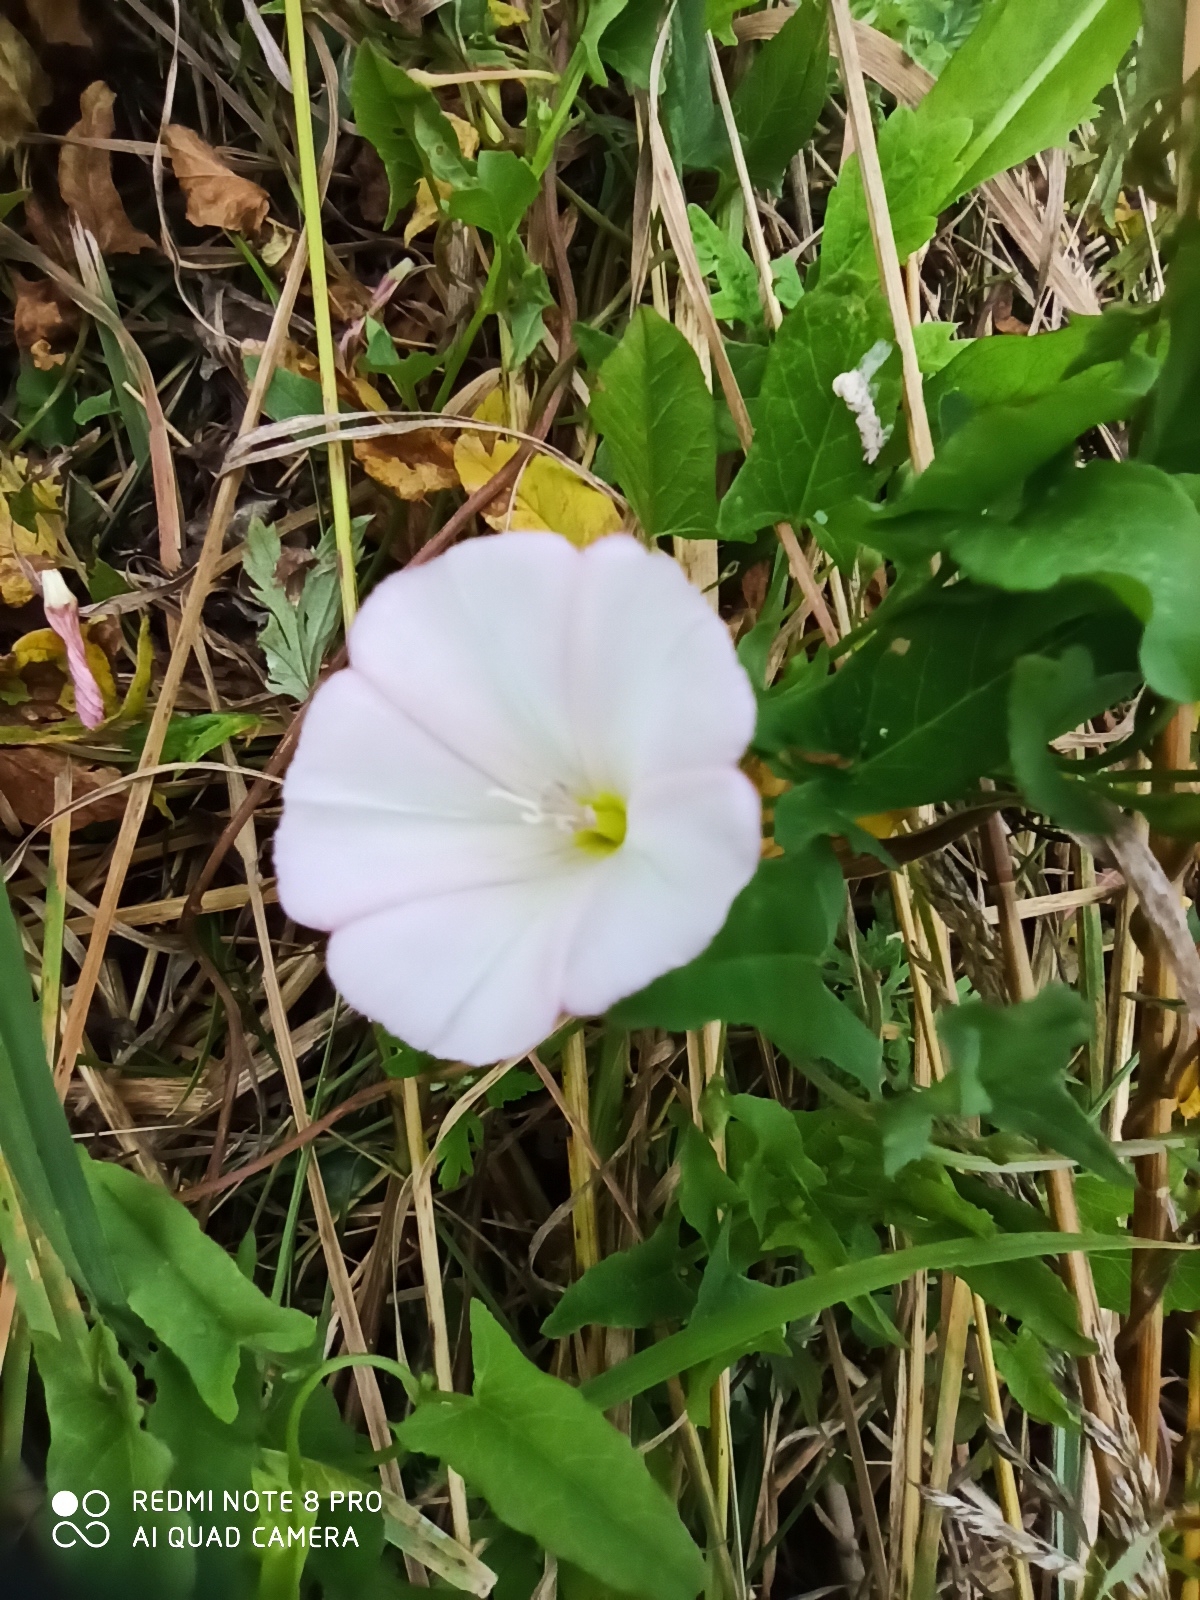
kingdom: Plantae
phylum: Tracheophyta
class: Magnoliopsida
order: Solanales
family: Convolvulaceae
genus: Convolvulus
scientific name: Convolvulus arvensis
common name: Field bindweed
